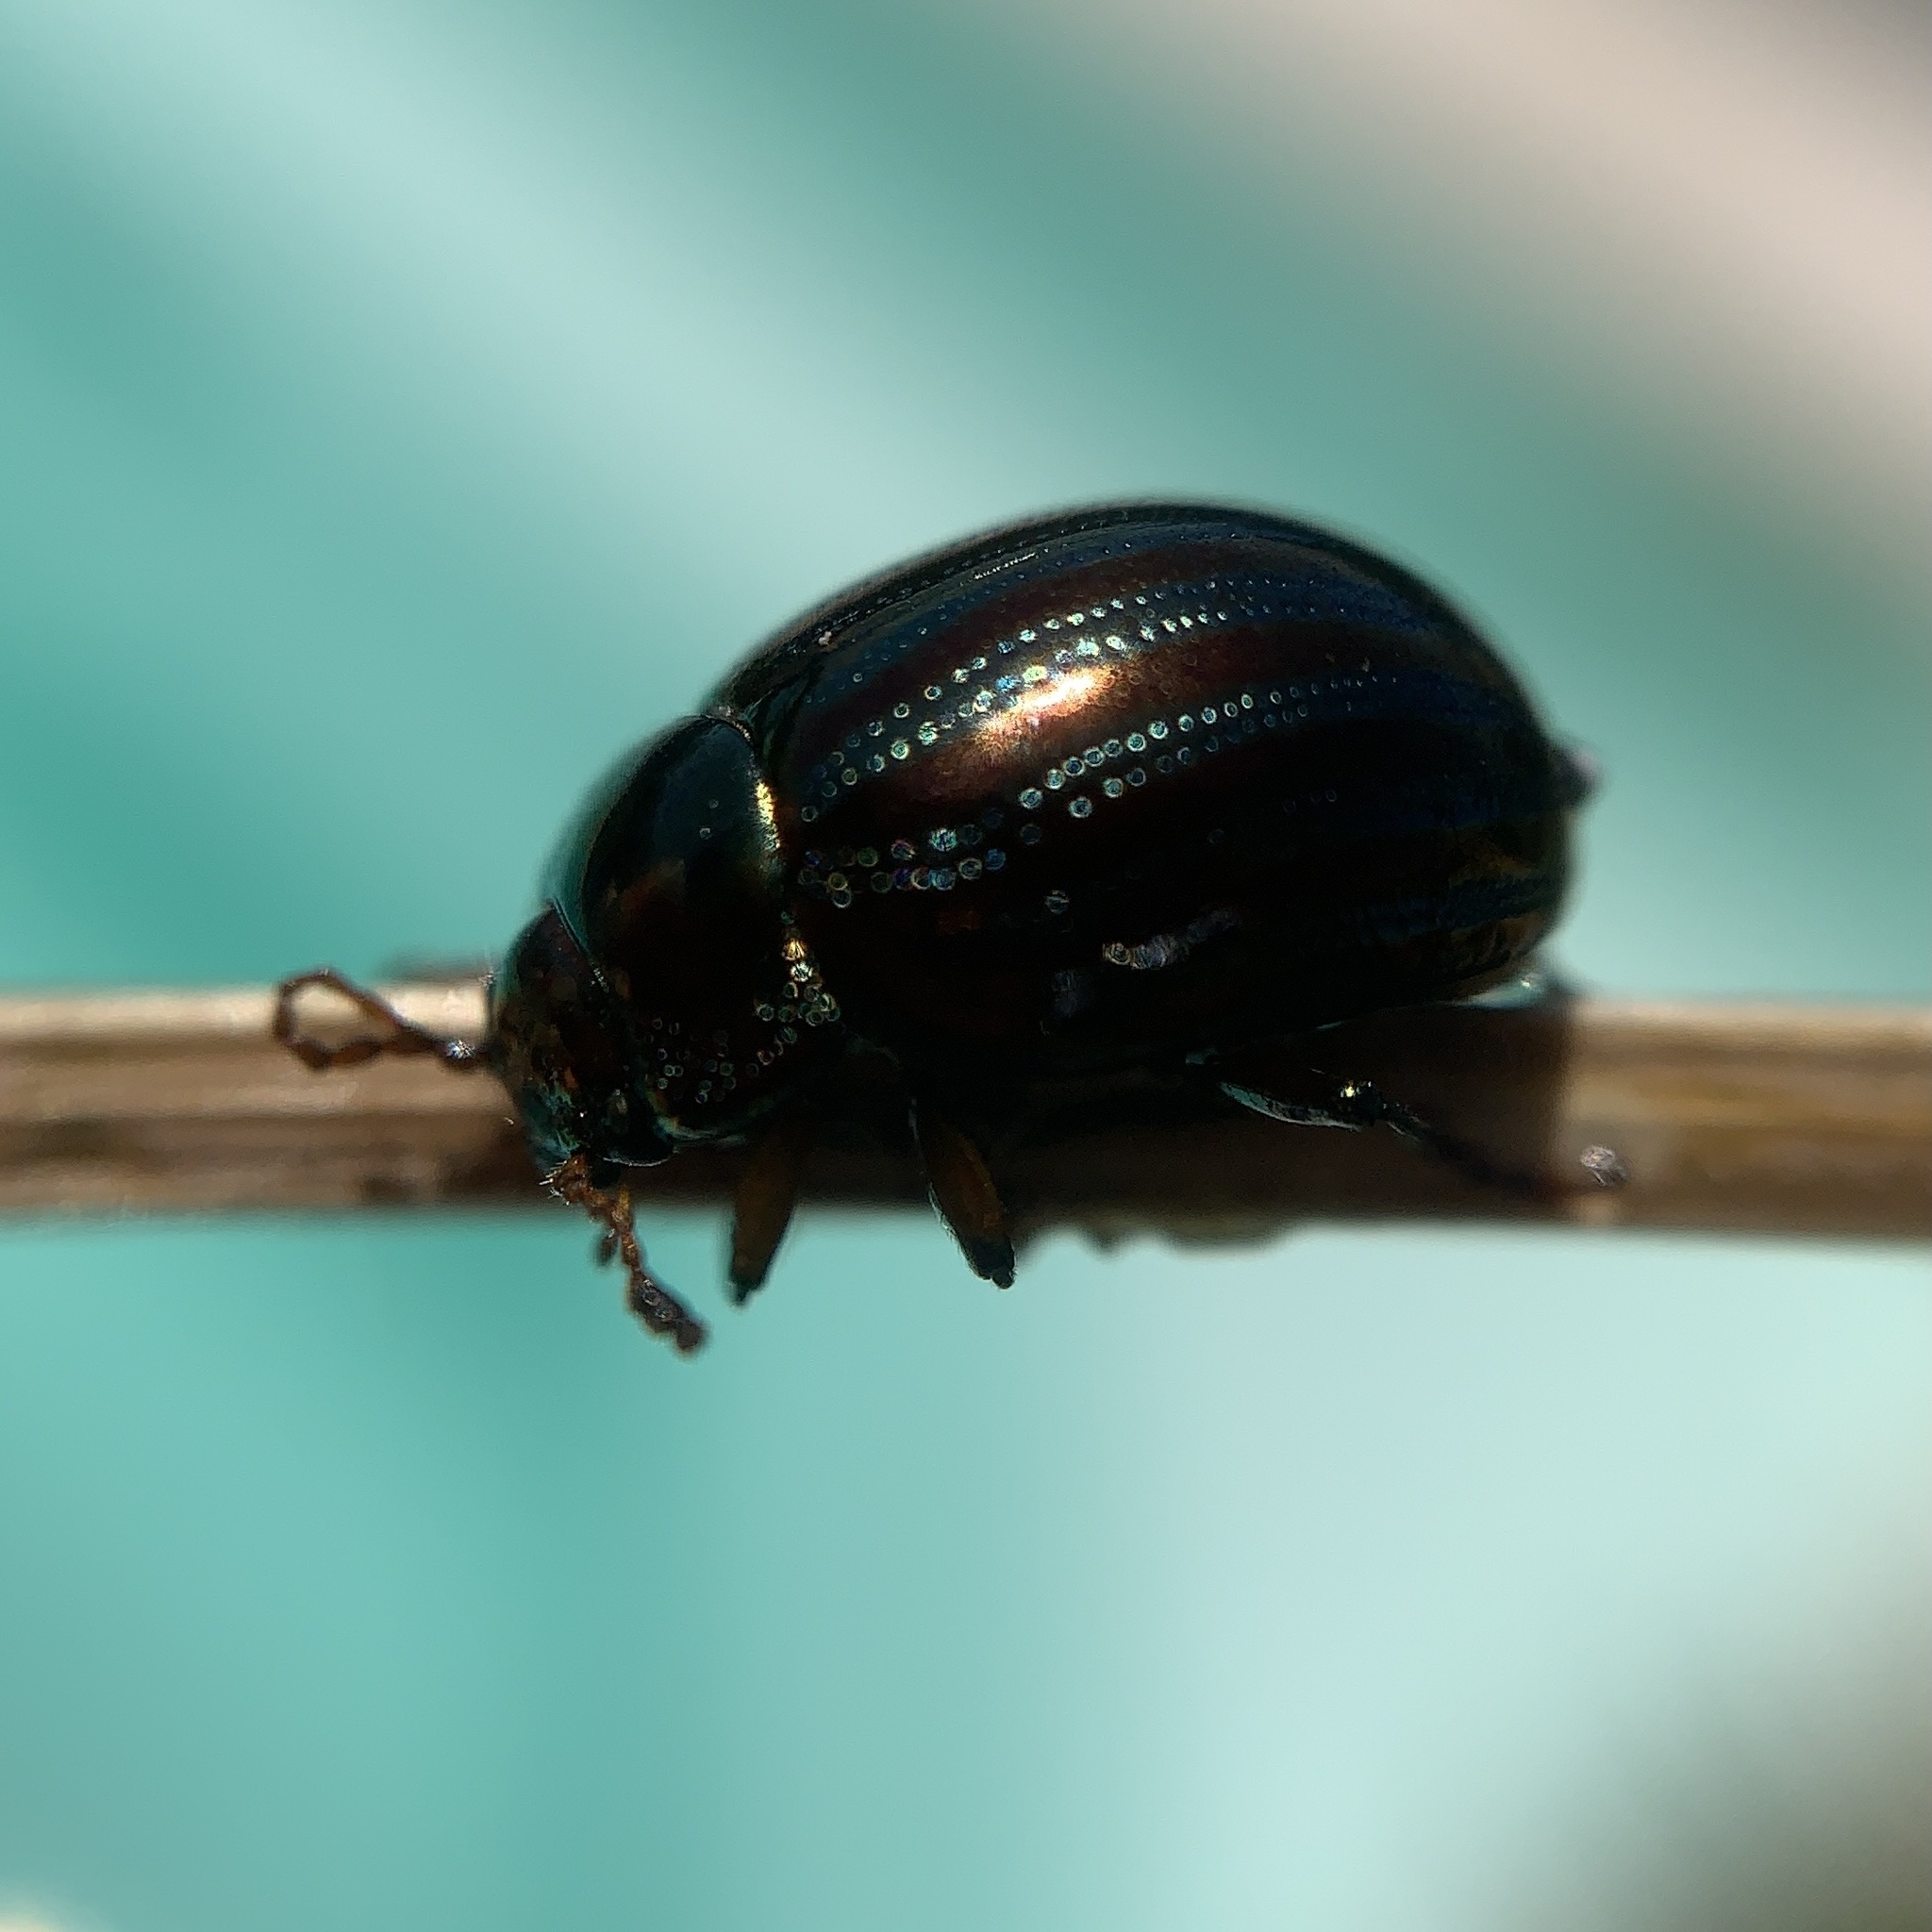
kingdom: Animalia
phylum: Arthropoda
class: Insecta
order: Coleoptera
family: Chrysomelidae
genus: Chrysolina
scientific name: Chrysolina americana
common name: Rosemary beetle
